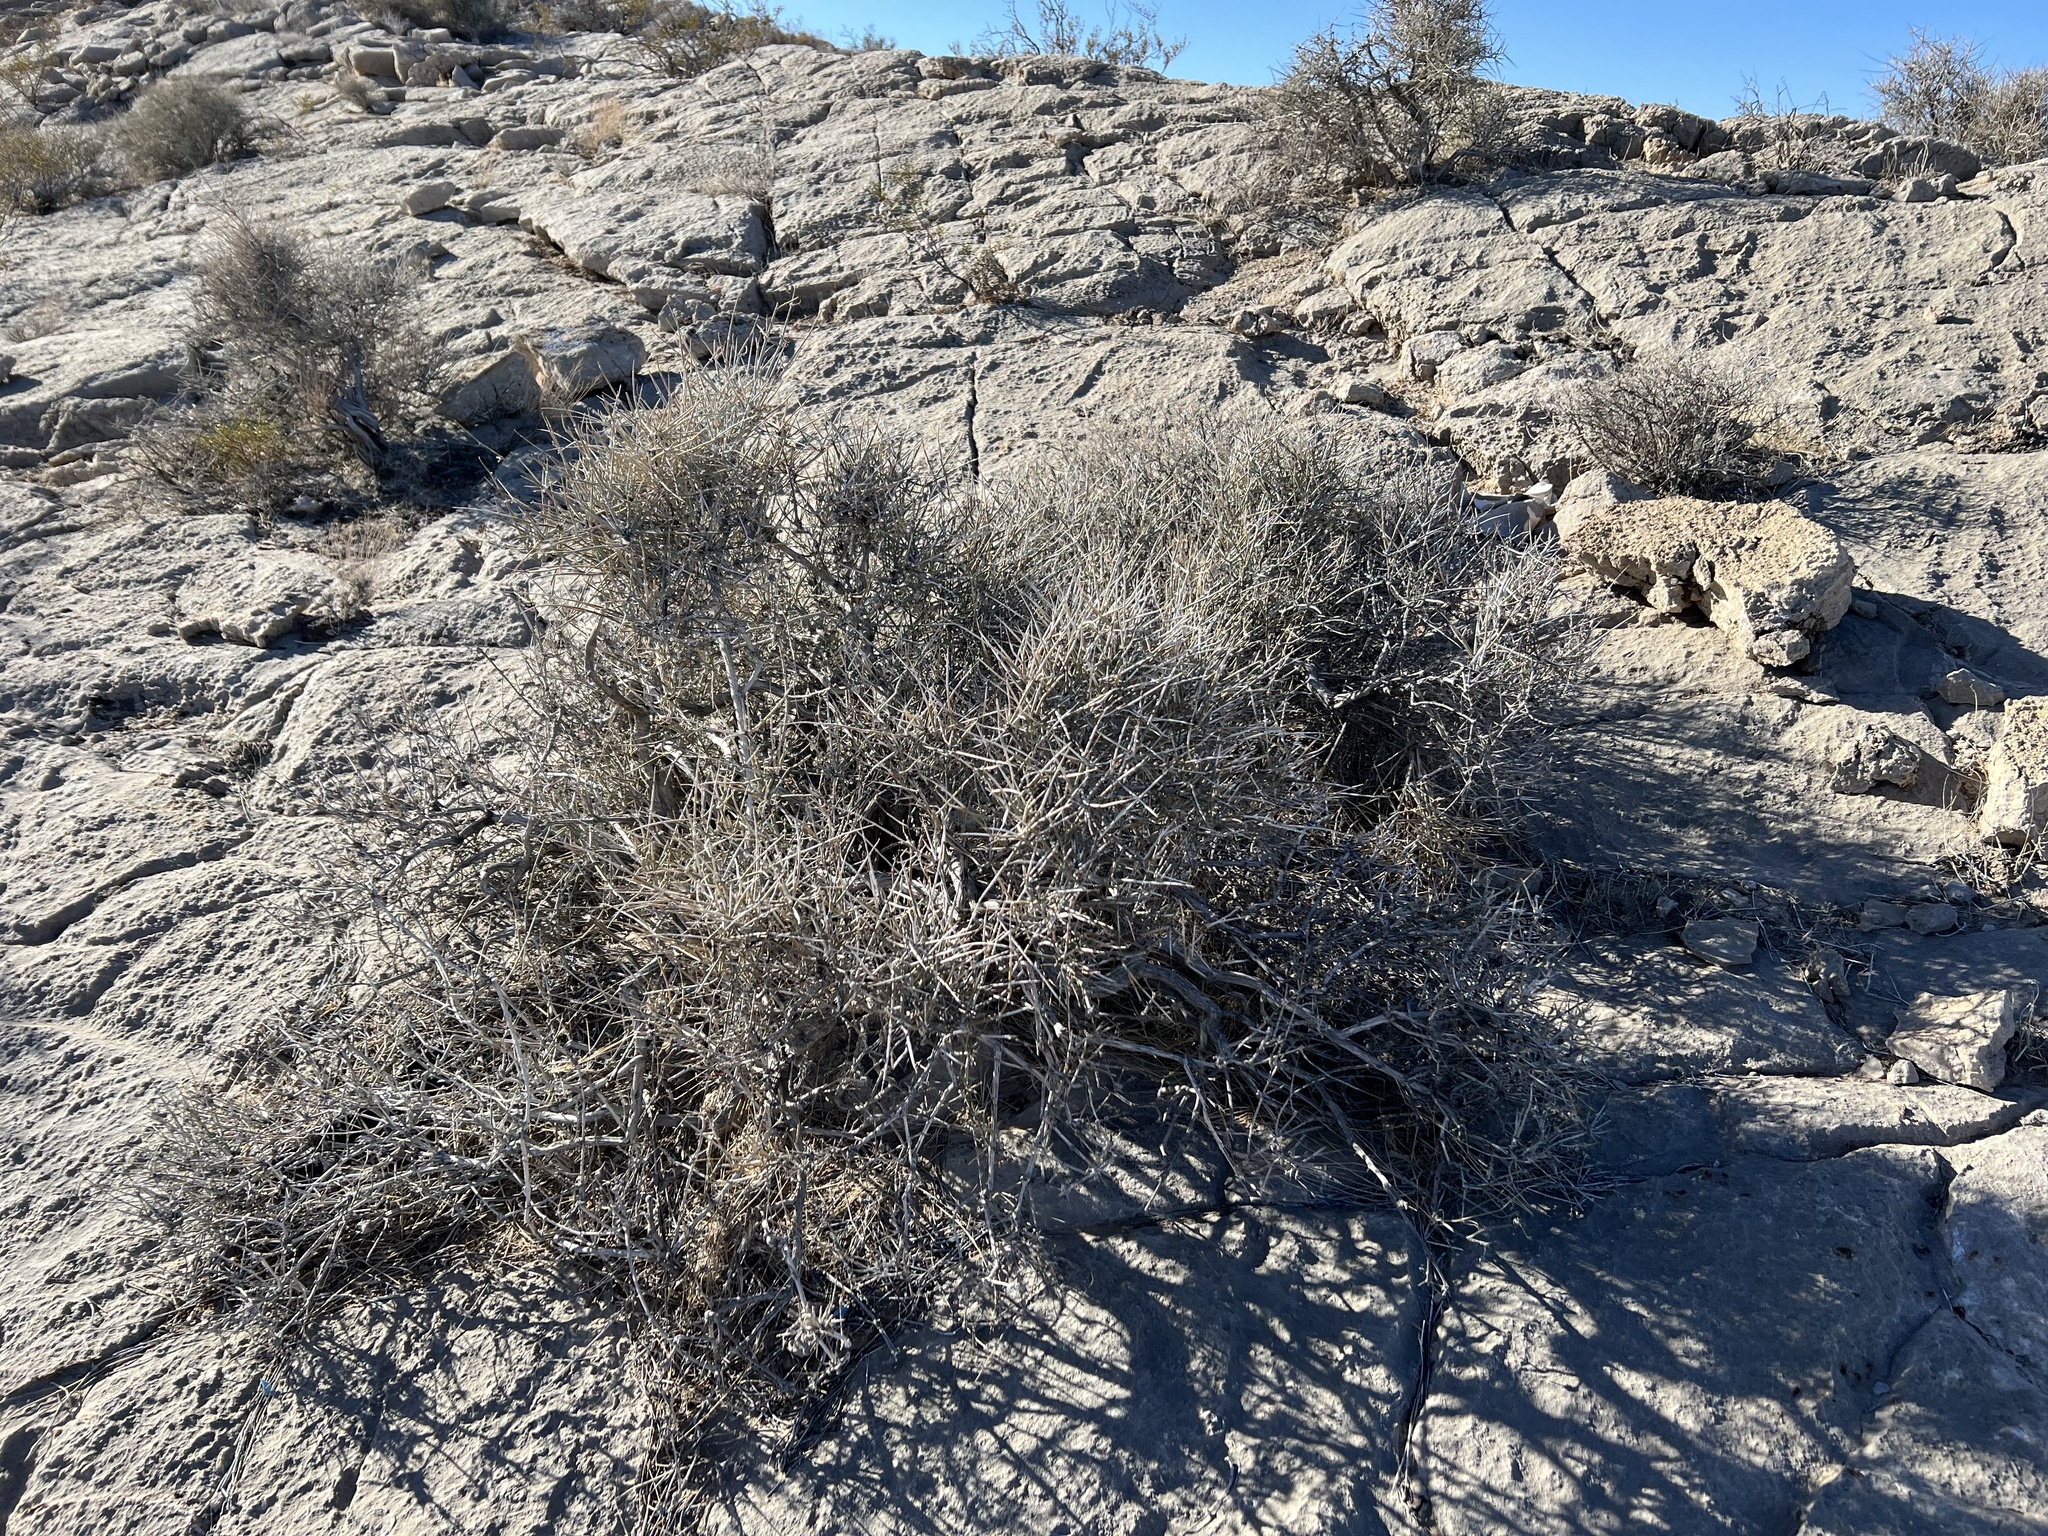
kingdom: Plantae
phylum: Tracheophyta
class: Gnetopsida
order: Ephedrales
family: Ephedraceae
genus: Ephedra
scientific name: Ephedra nevadensis
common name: Gray ephedra
